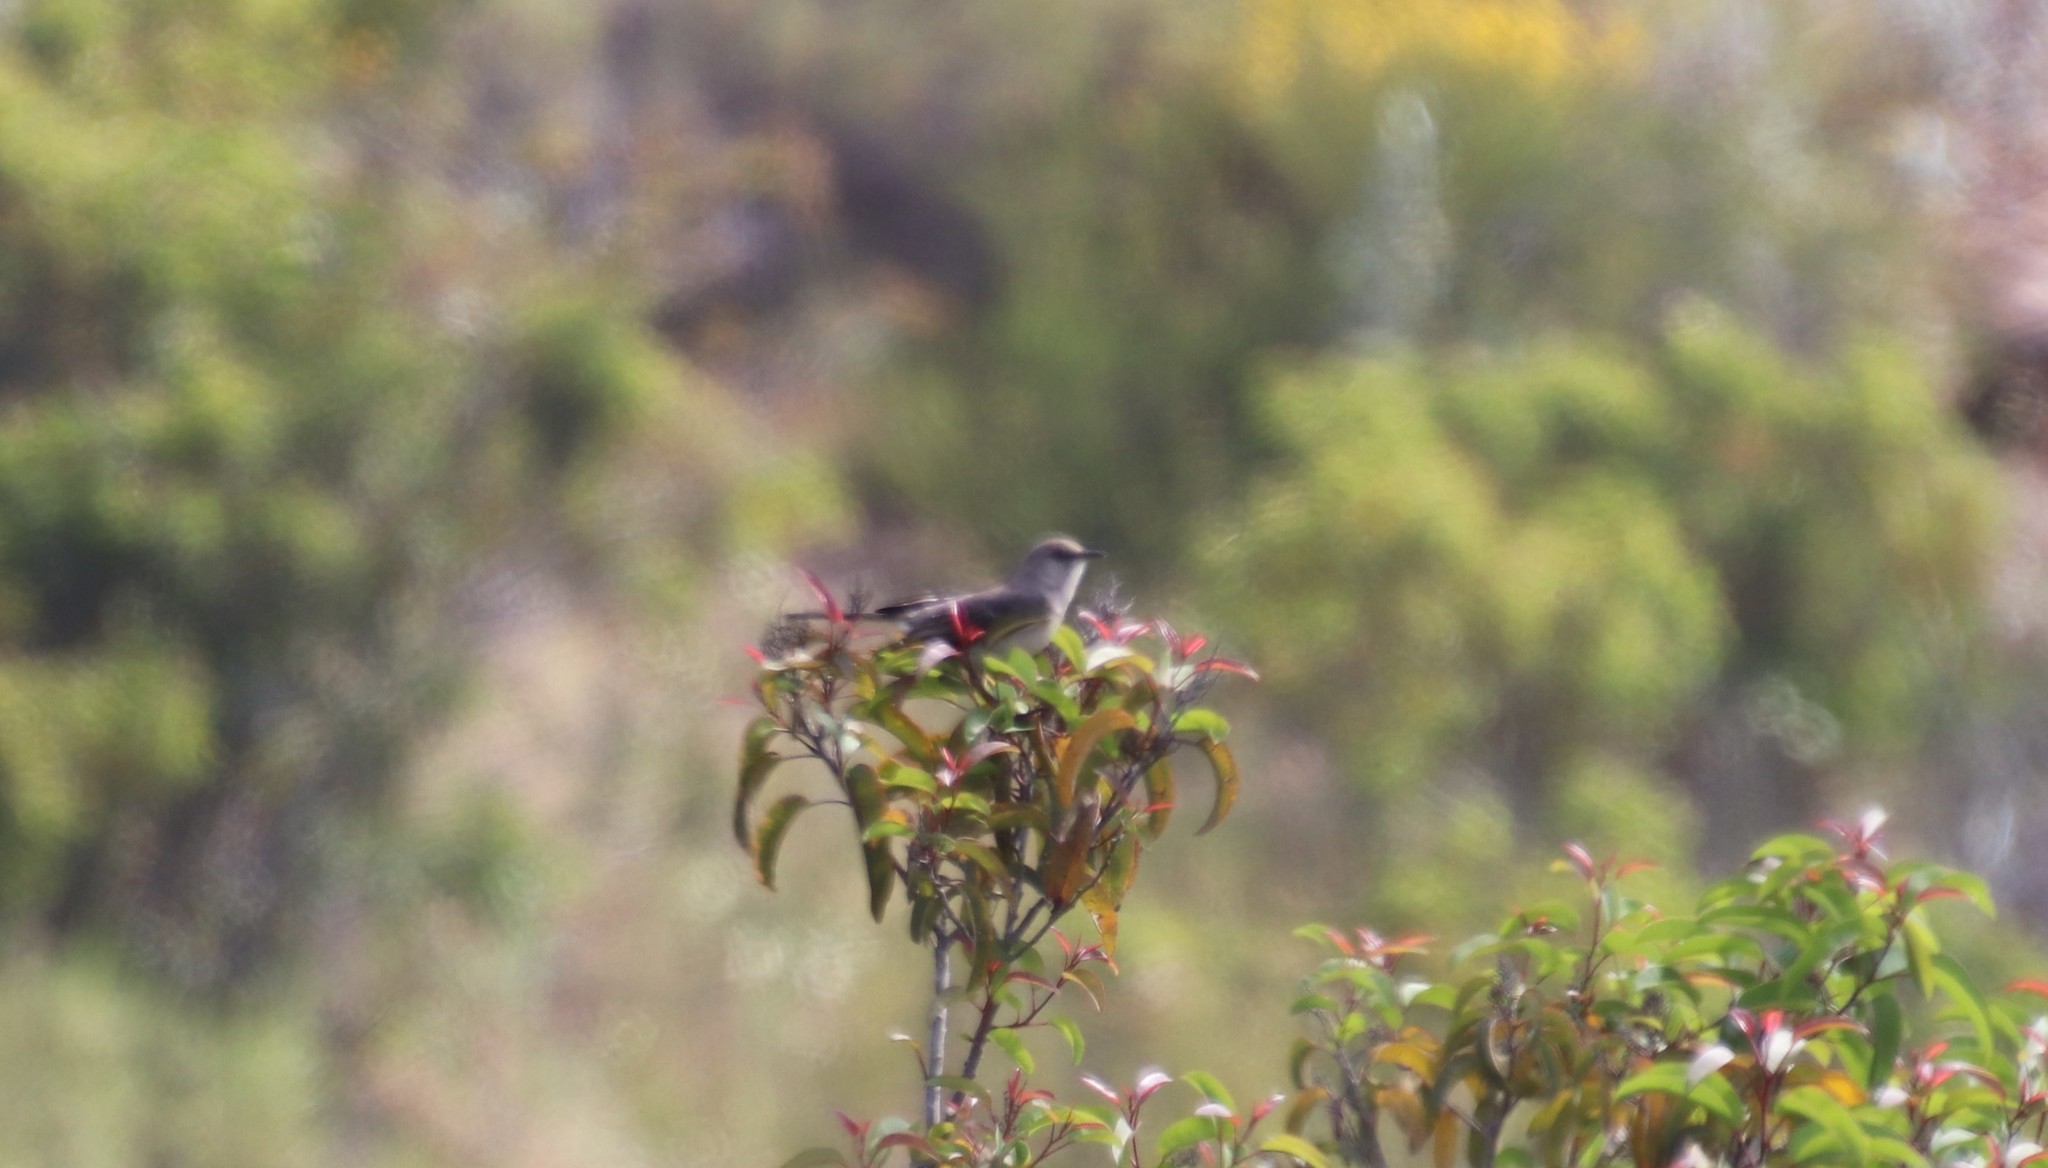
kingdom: Animalia
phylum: Chordata
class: Aves
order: Passeriformes
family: Mimidae
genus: Mimus
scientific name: Mimus polyglottos
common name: Northern mockingbird
